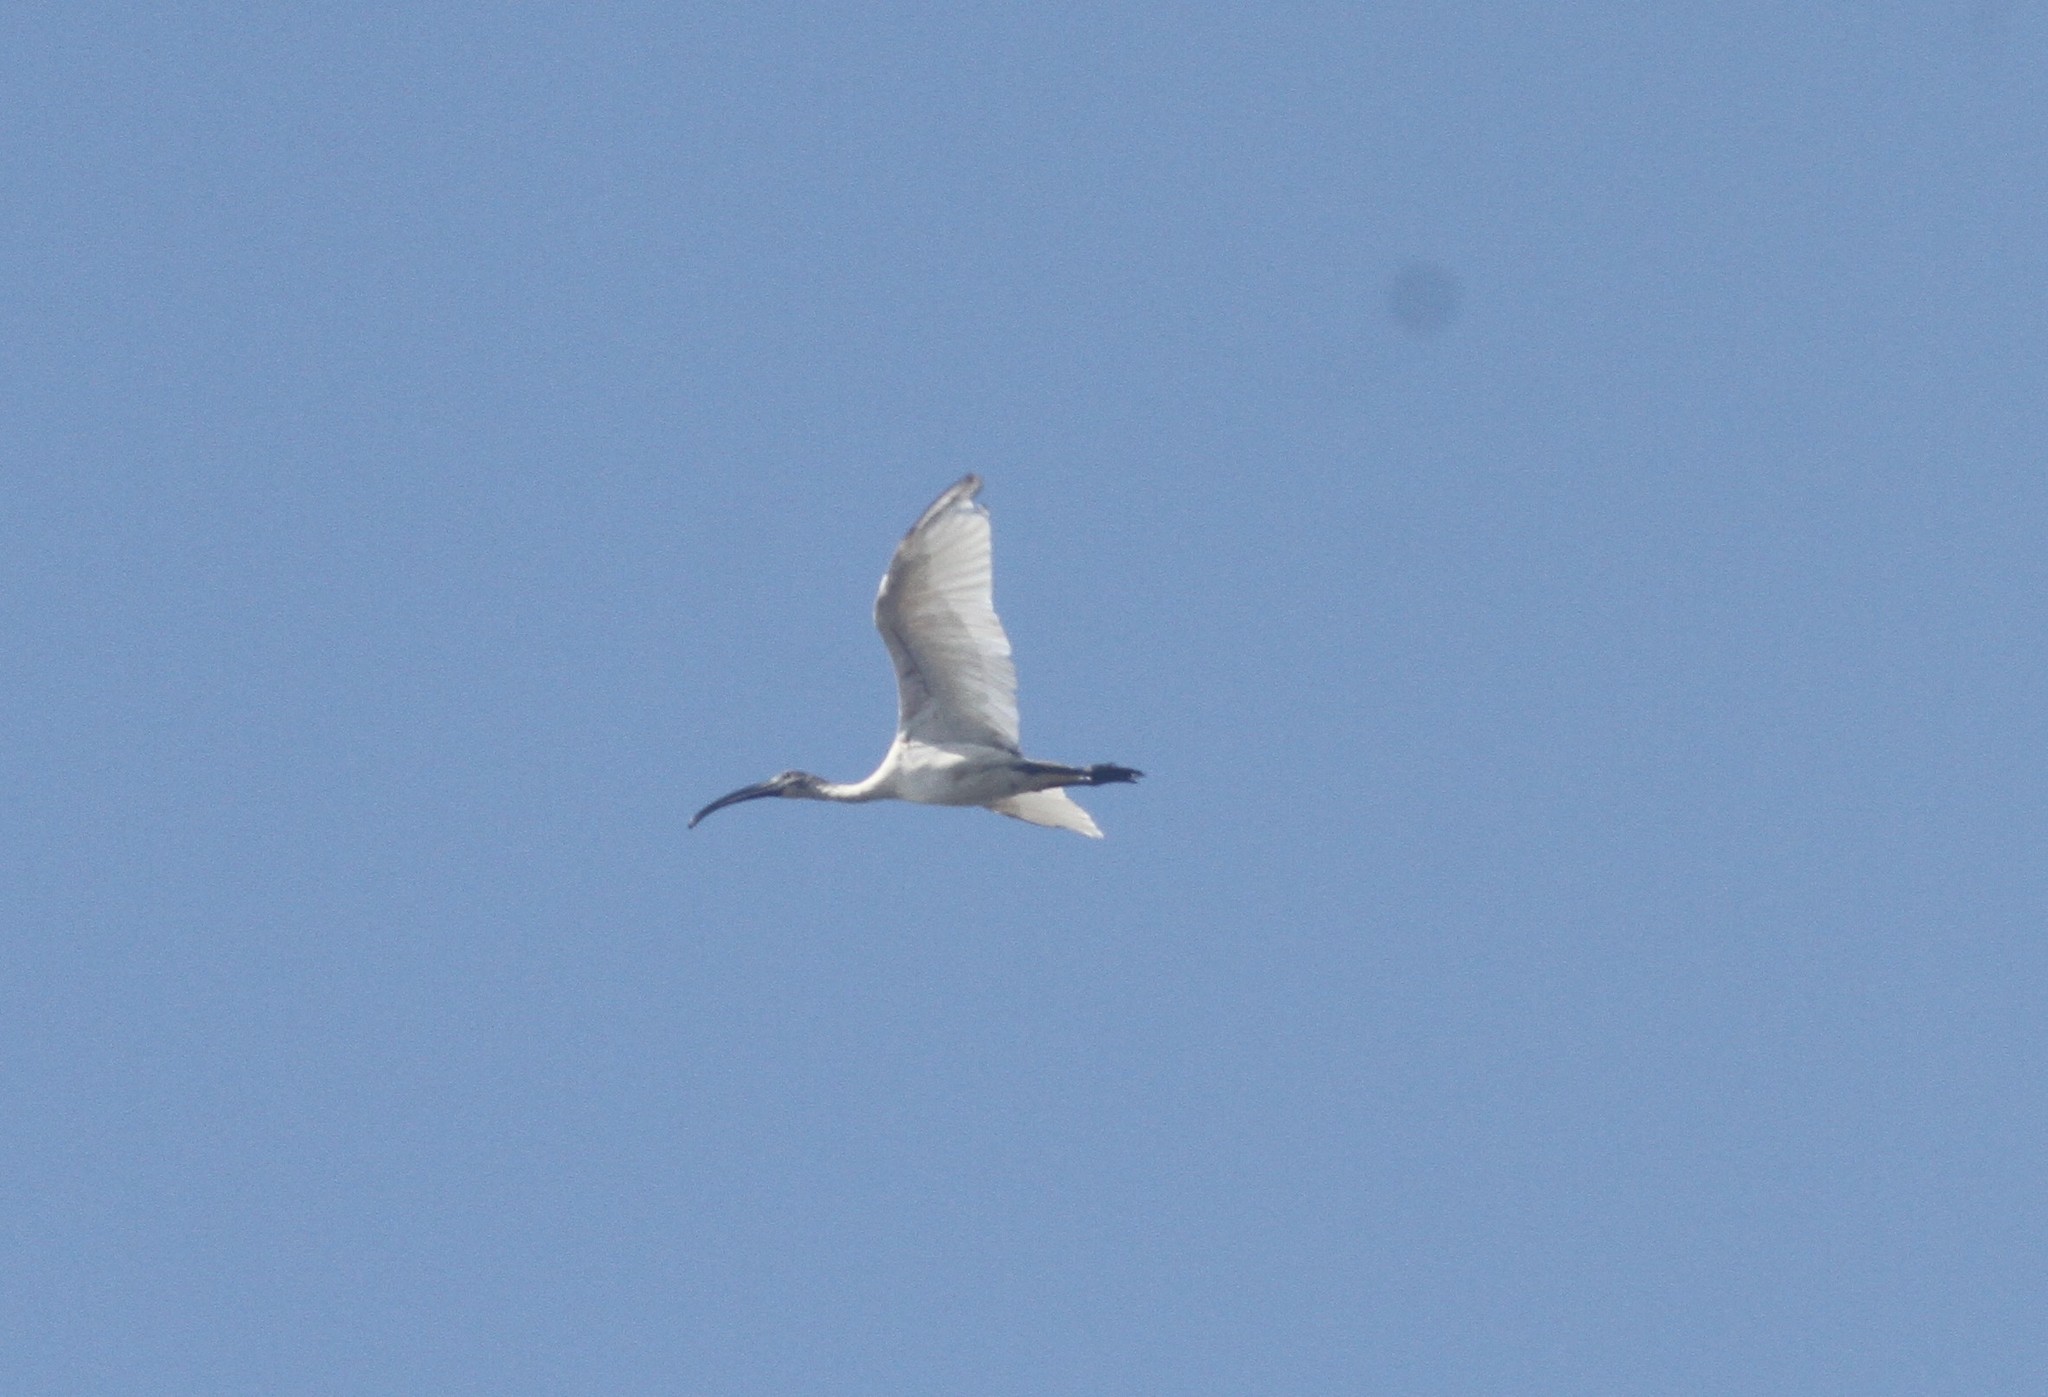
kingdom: Animalia
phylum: Chordata
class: Aves
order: Pelecaniformes
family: Threskiornithidae
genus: Threskiornis
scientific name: Threskiornis melanocephalus
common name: Black-headed ibis
